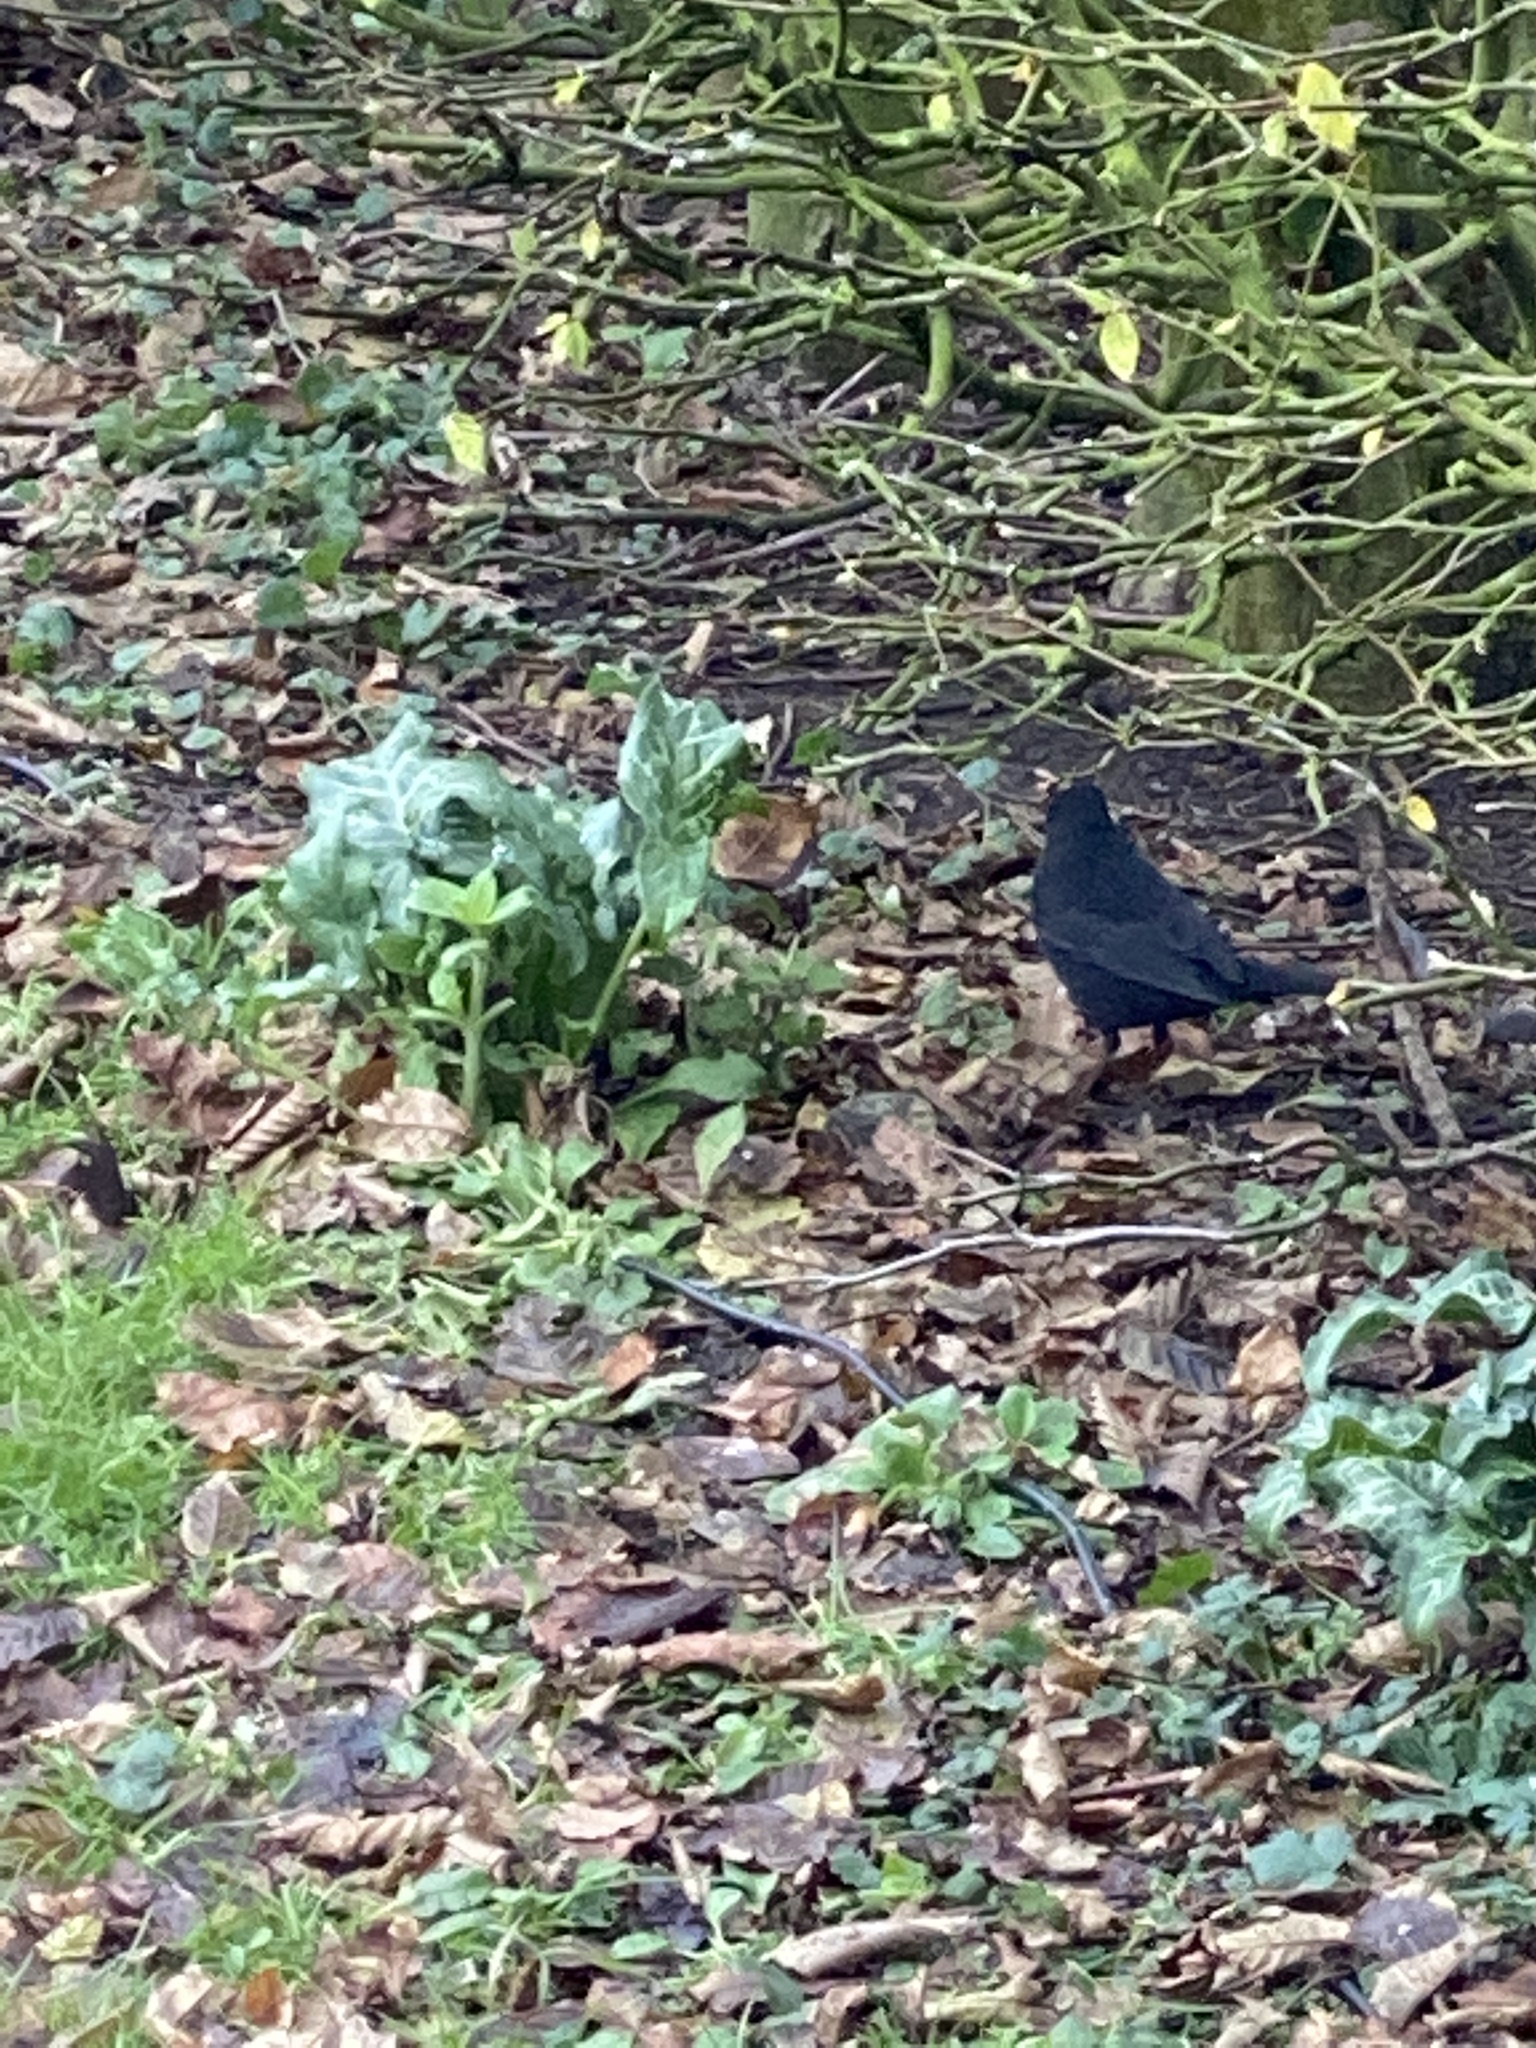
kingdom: Animalia
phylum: Chordata
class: Aves
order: Passeriformes
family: Turdidae
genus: Turdus
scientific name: Turdus merula
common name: Common blackbird
